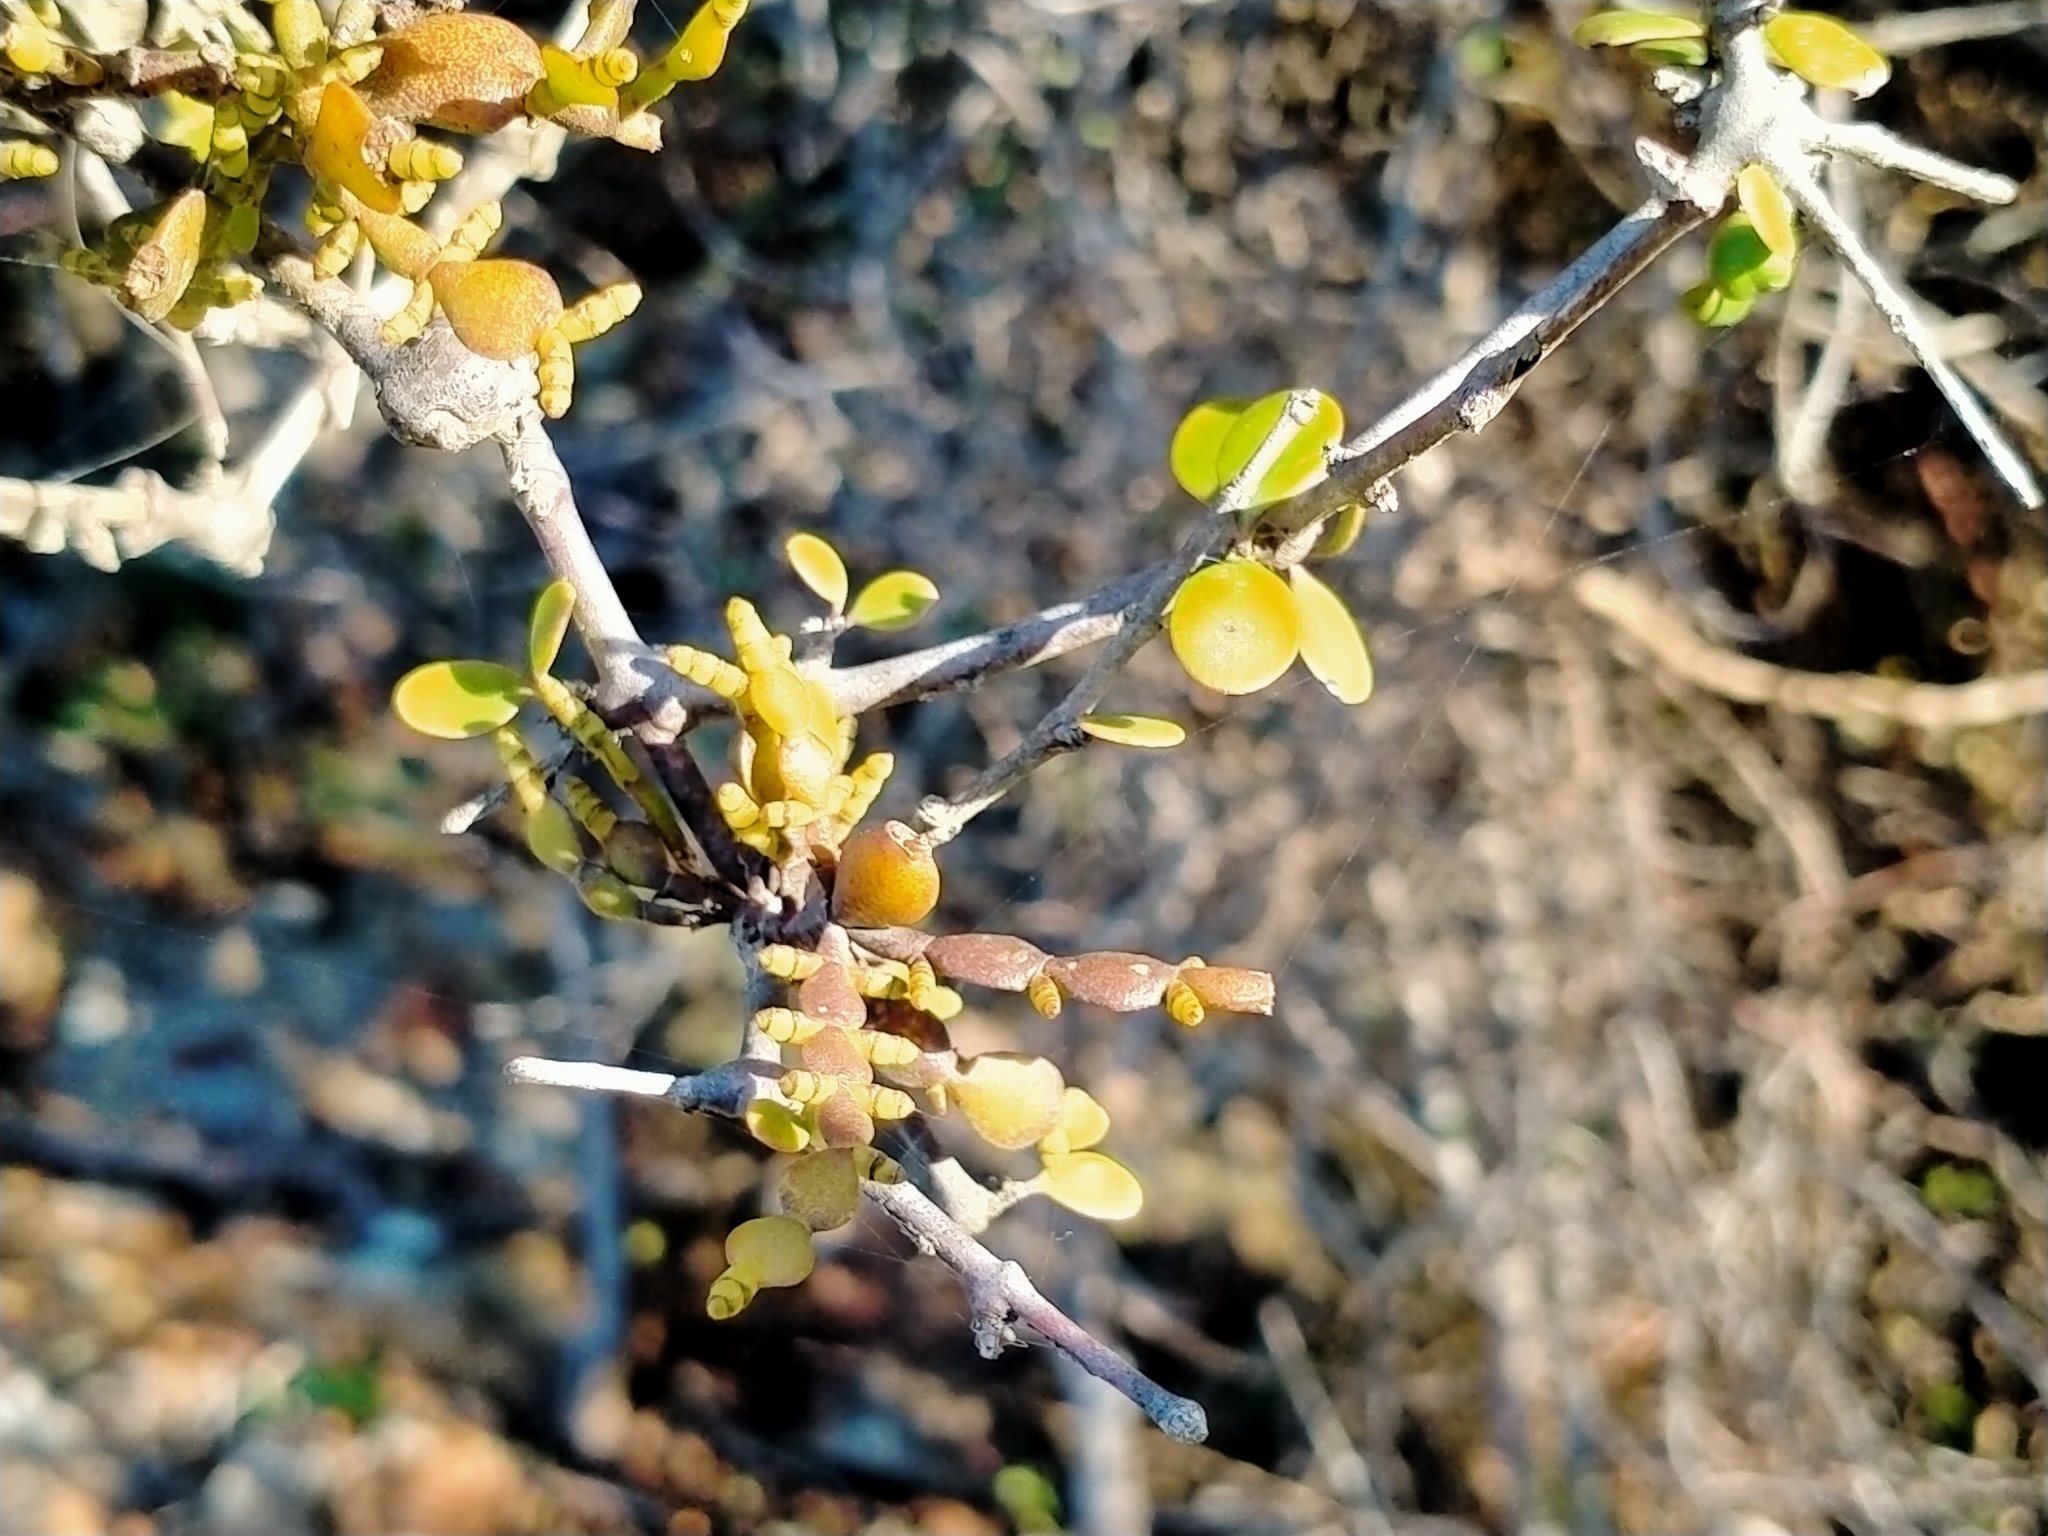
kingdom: Plantae
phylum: Tracheophyta
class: Magnoliopsida
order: Santalales
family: Viscaceae
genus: Korthalsella
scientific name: Korthalsella lindsayi
